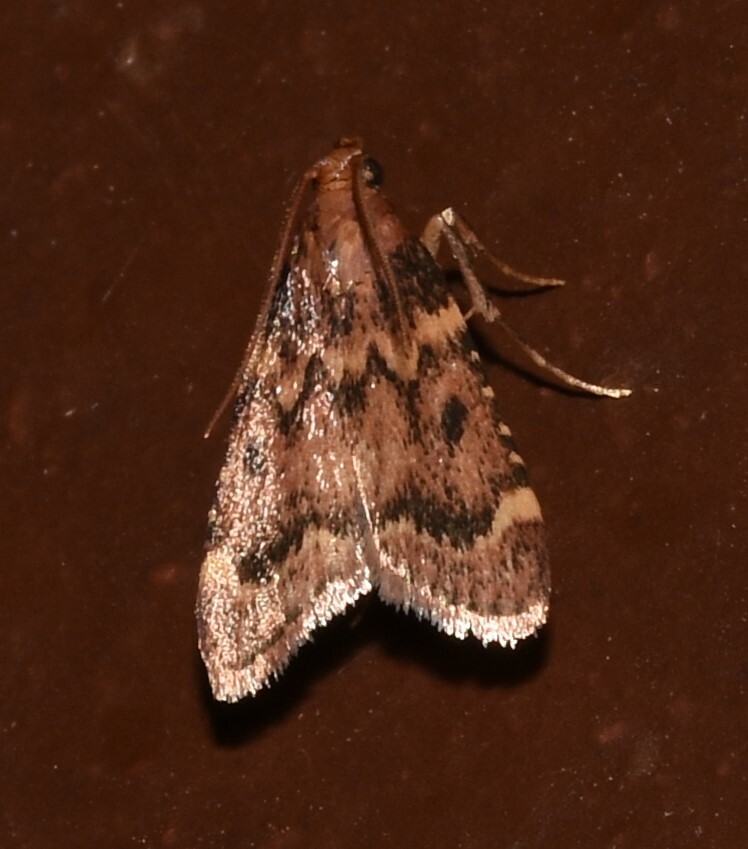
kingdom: Animalia
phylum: Arthropoda
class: Insecta
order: Lepidoptera
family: Pyralidae
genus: Aglossa
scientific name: Aglossa disciferalis
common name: Pink-masked pyralid moth
